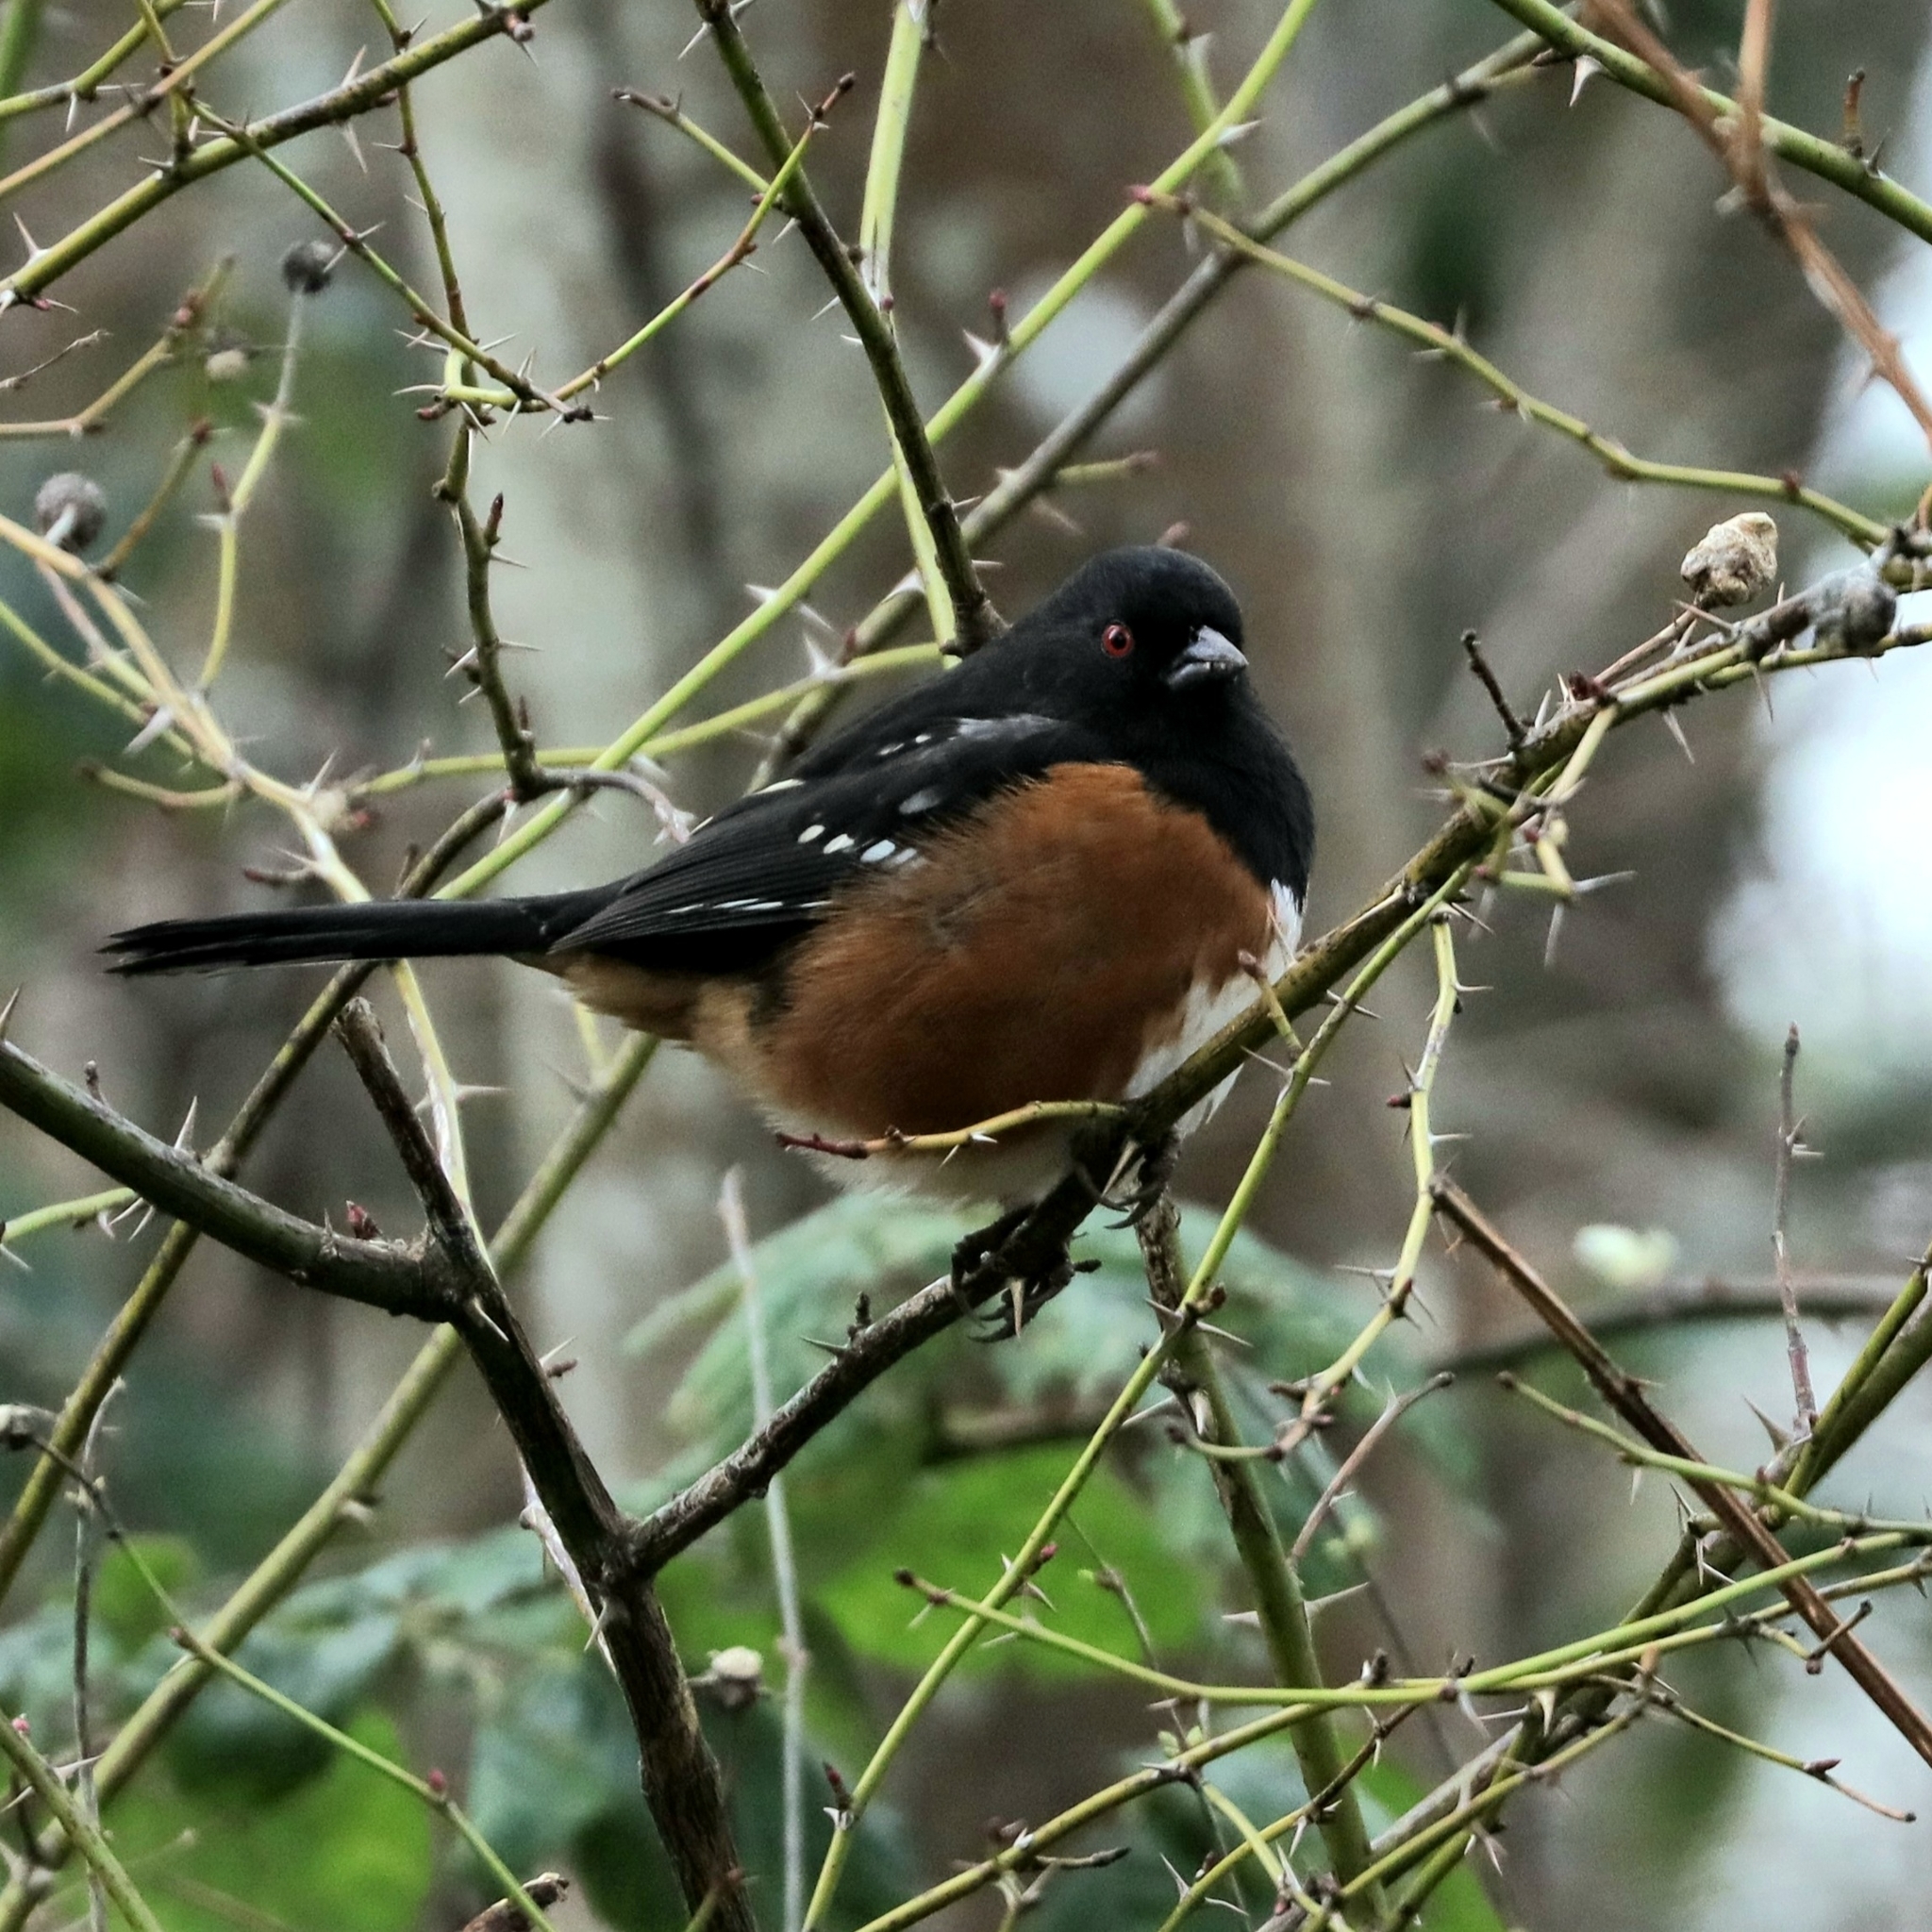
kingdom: Animalia
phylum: Chordata
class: Aves
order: Passeriformes
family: Passerellidae
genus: Pipilo
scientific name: Pipilo maculatus
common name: Spotted towhee
